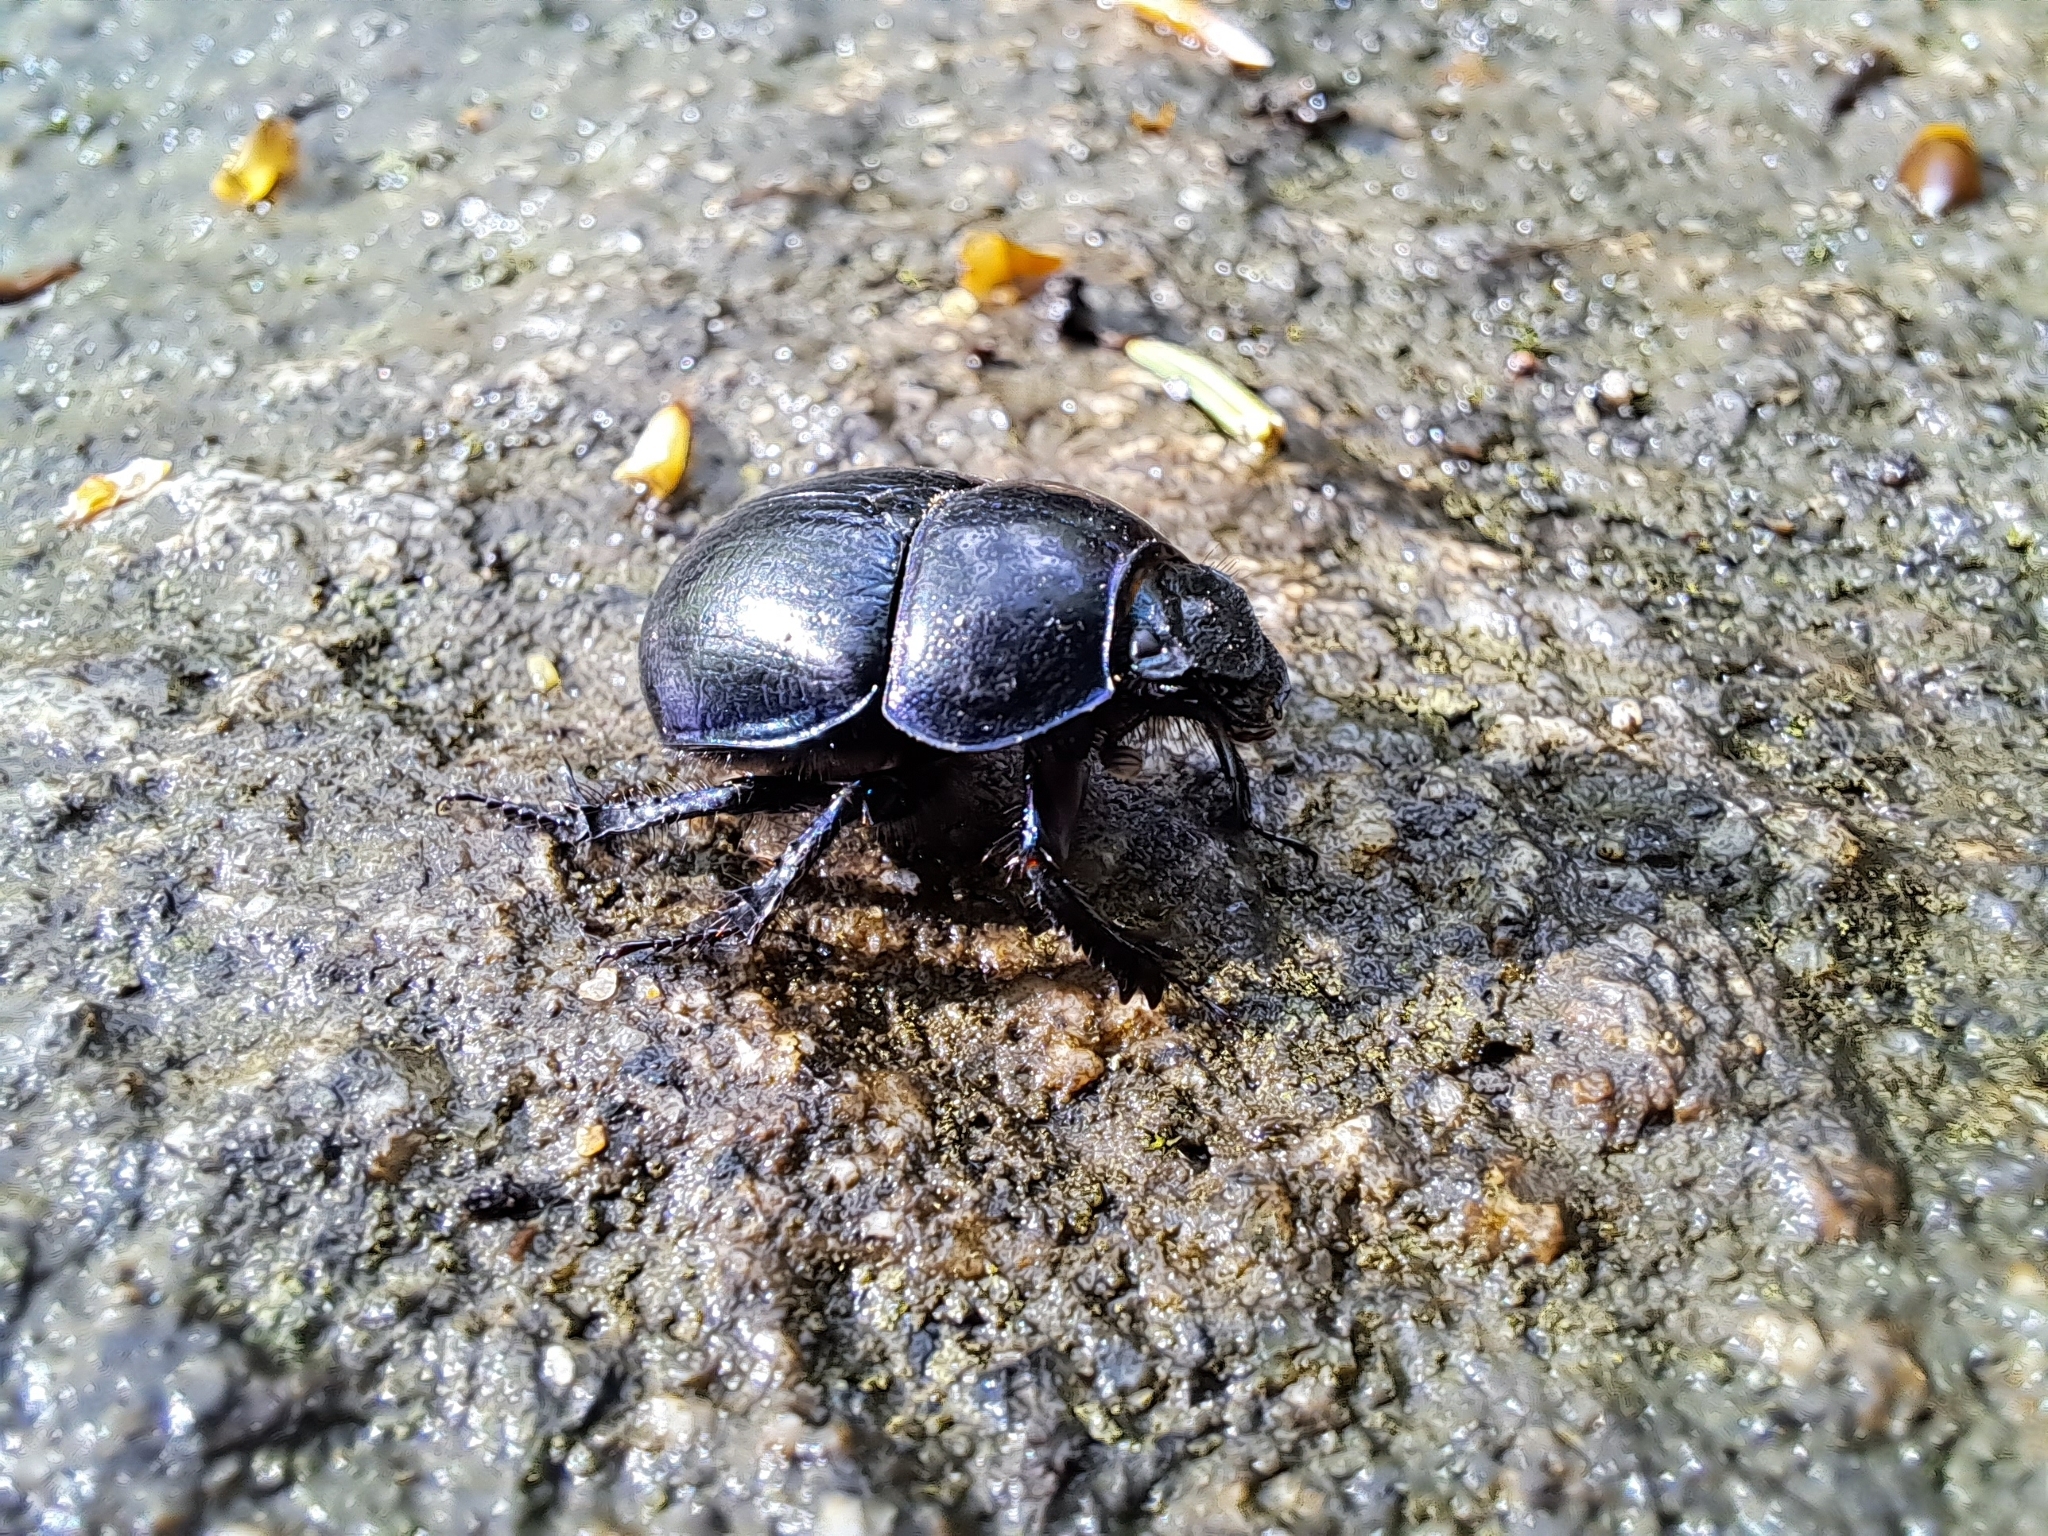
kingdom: Animalia
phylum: Arthropoda
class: Insecta
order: Coleoptera
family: Geotrupidae
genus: Anoplotrupes
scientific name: Anoplotrupes stercorosus
